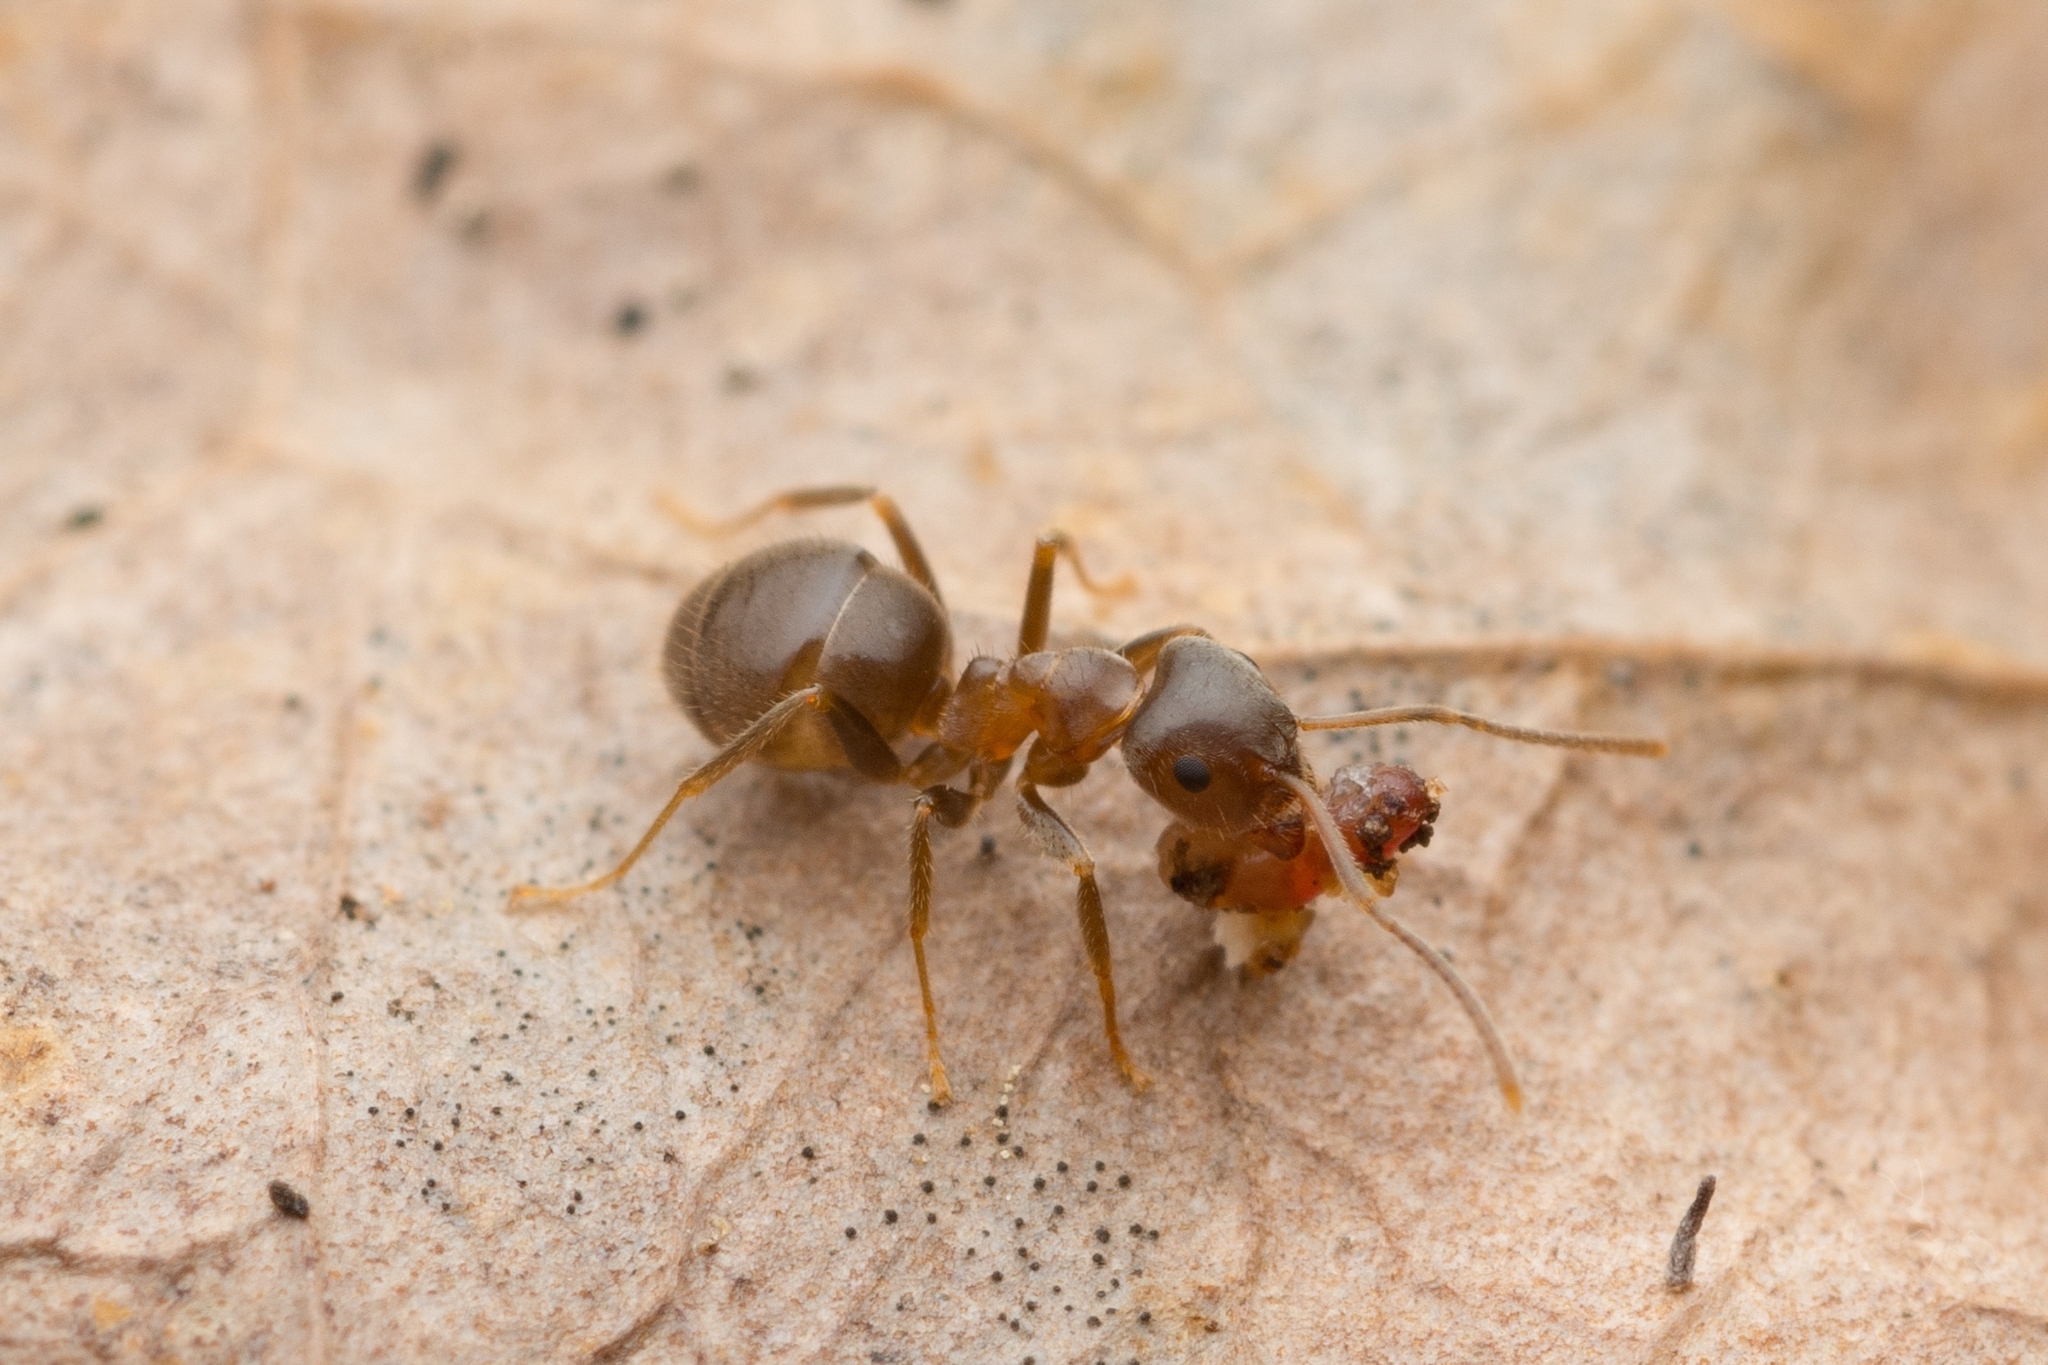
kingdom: Animalia
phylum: Arthropoda
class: Insecta
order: Hymenoptera
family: Formicidae
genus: Lasius
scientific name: Lasius hayashi
